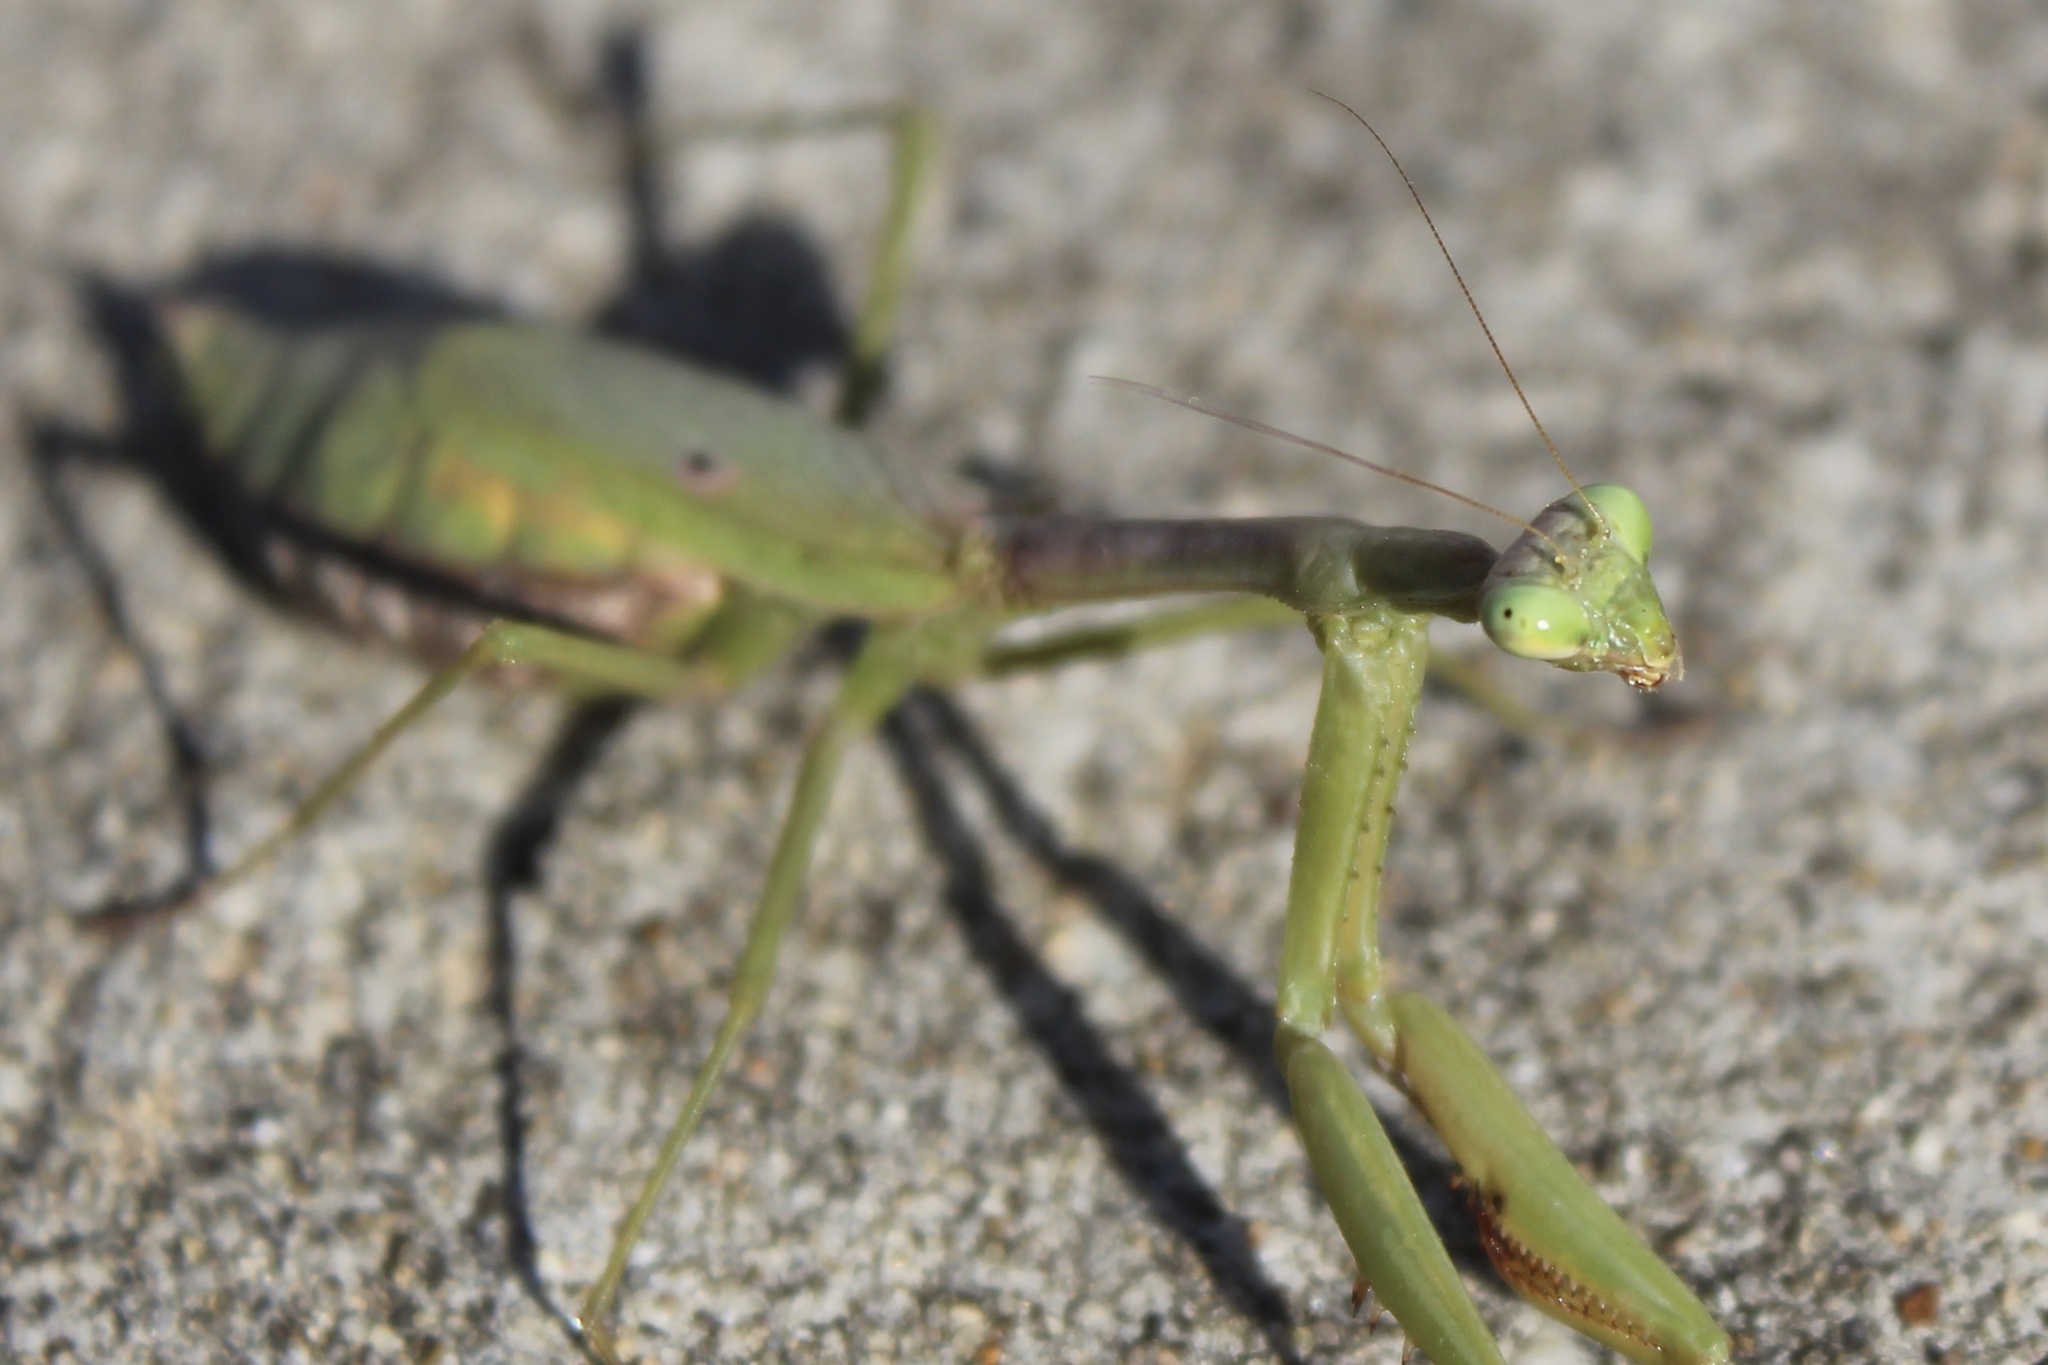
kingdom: Animalia
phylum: Arthropoda
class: Insecta
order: Mantodea
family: Mantidae
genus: Stagmomantis
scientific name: Stagmomantis carolina
